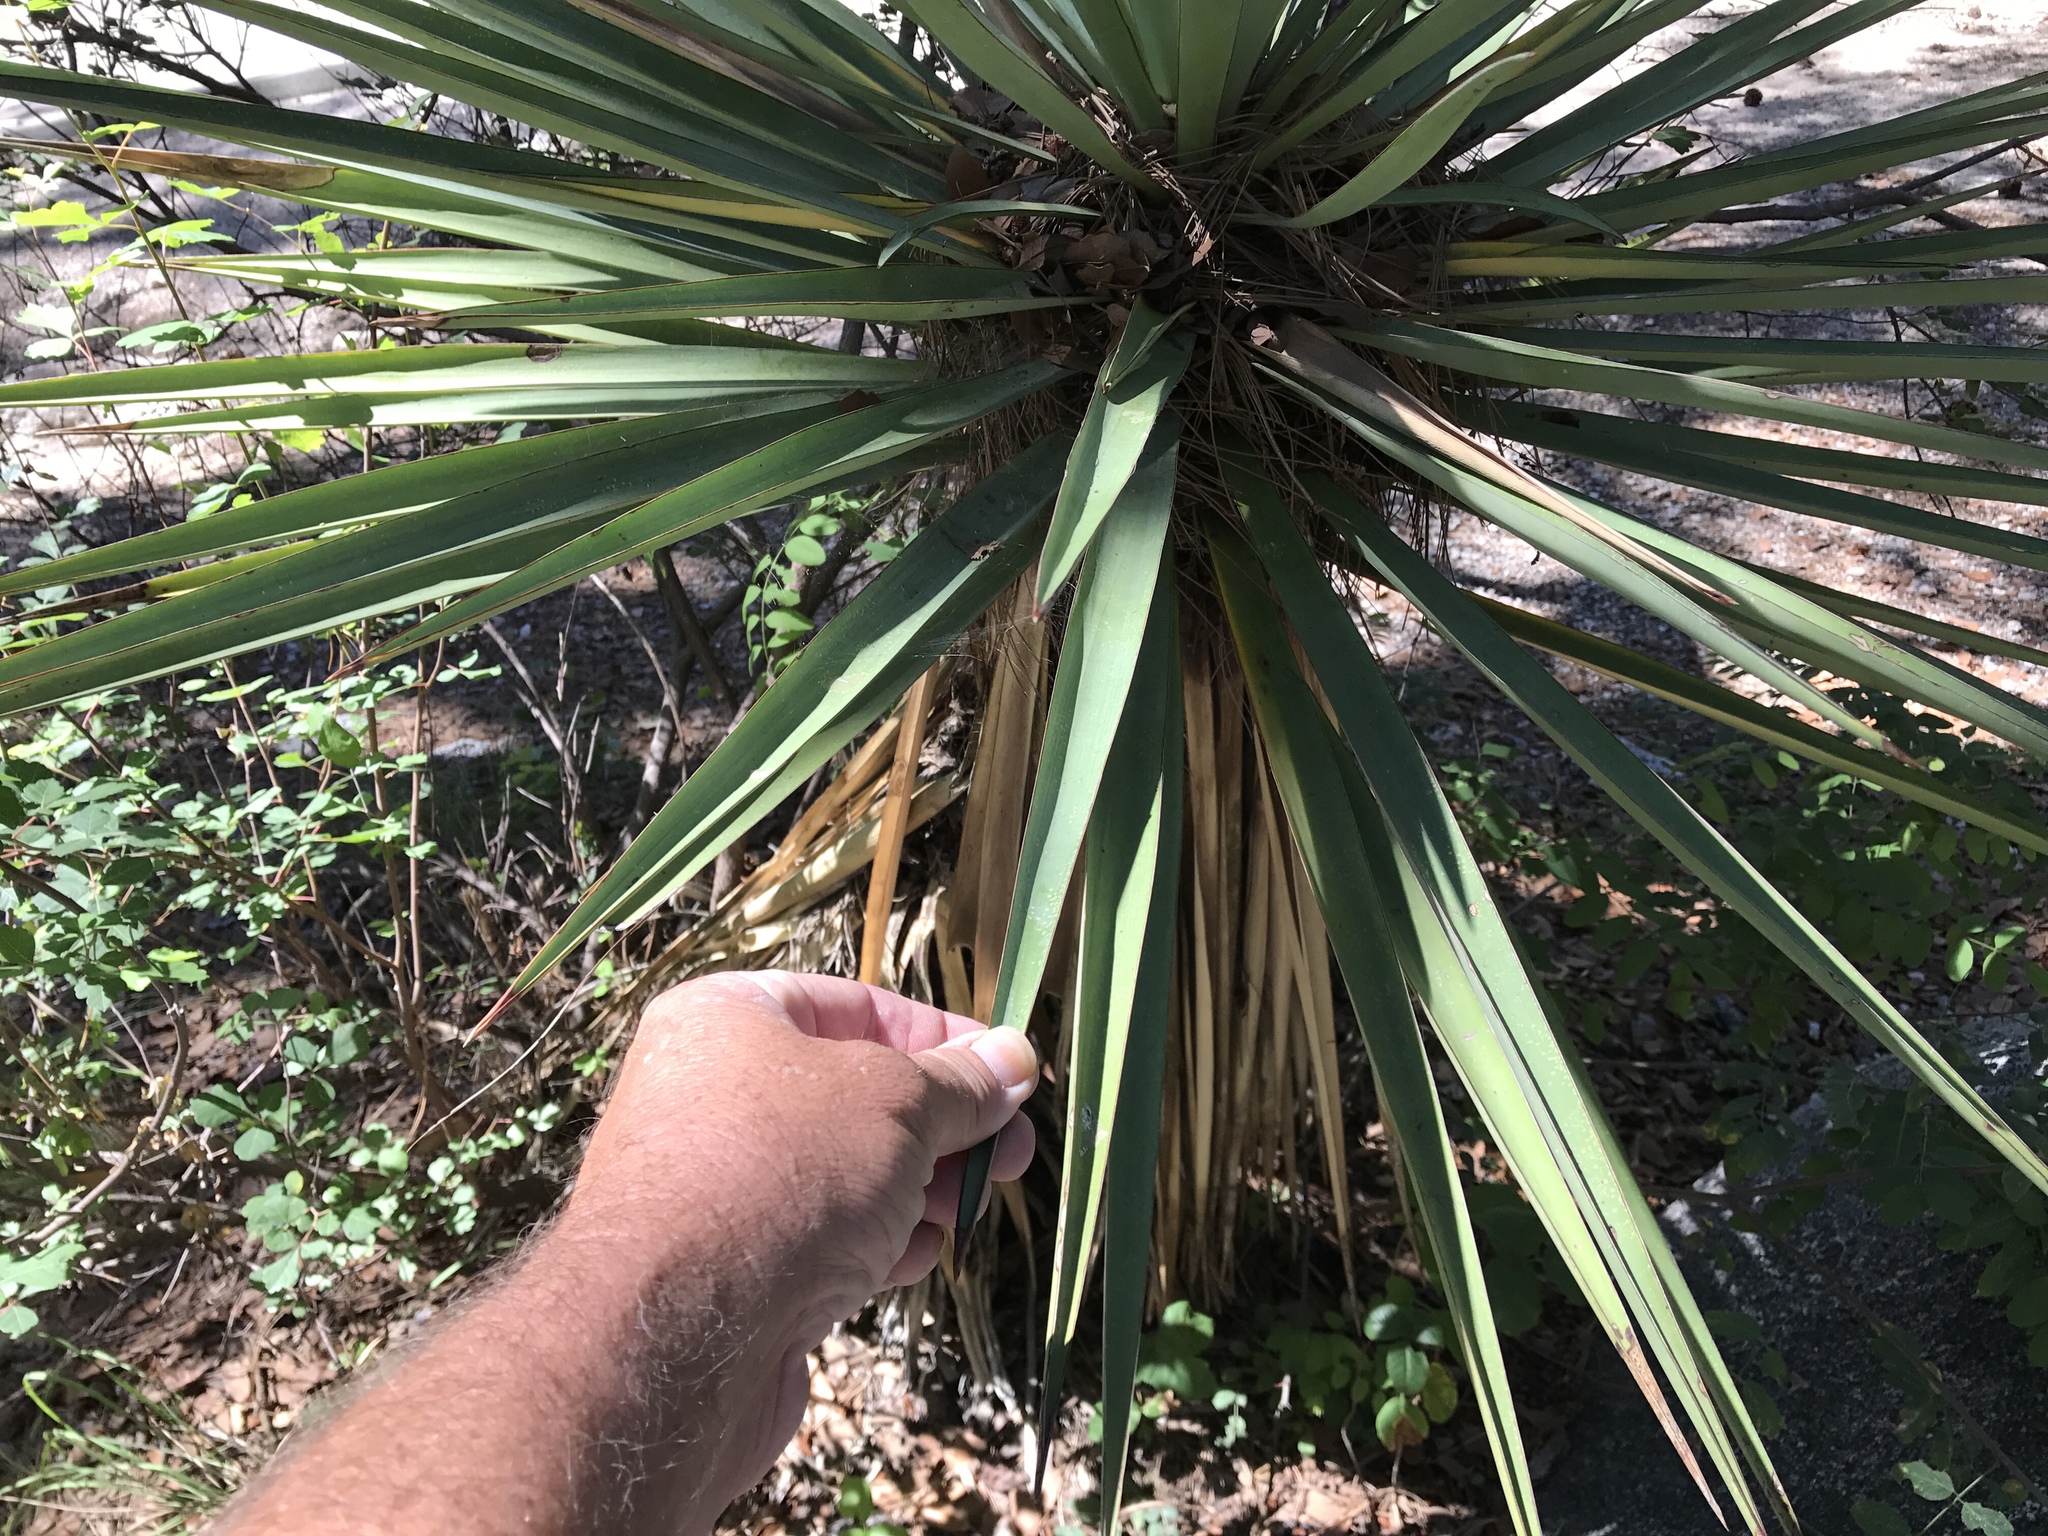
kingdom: Plantae
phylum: Tracheophyta
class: Liliopsida
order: Asparagales
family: Asparagaceae
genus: Yucca
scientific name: Yucca madrensis
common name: Hoary yucca
